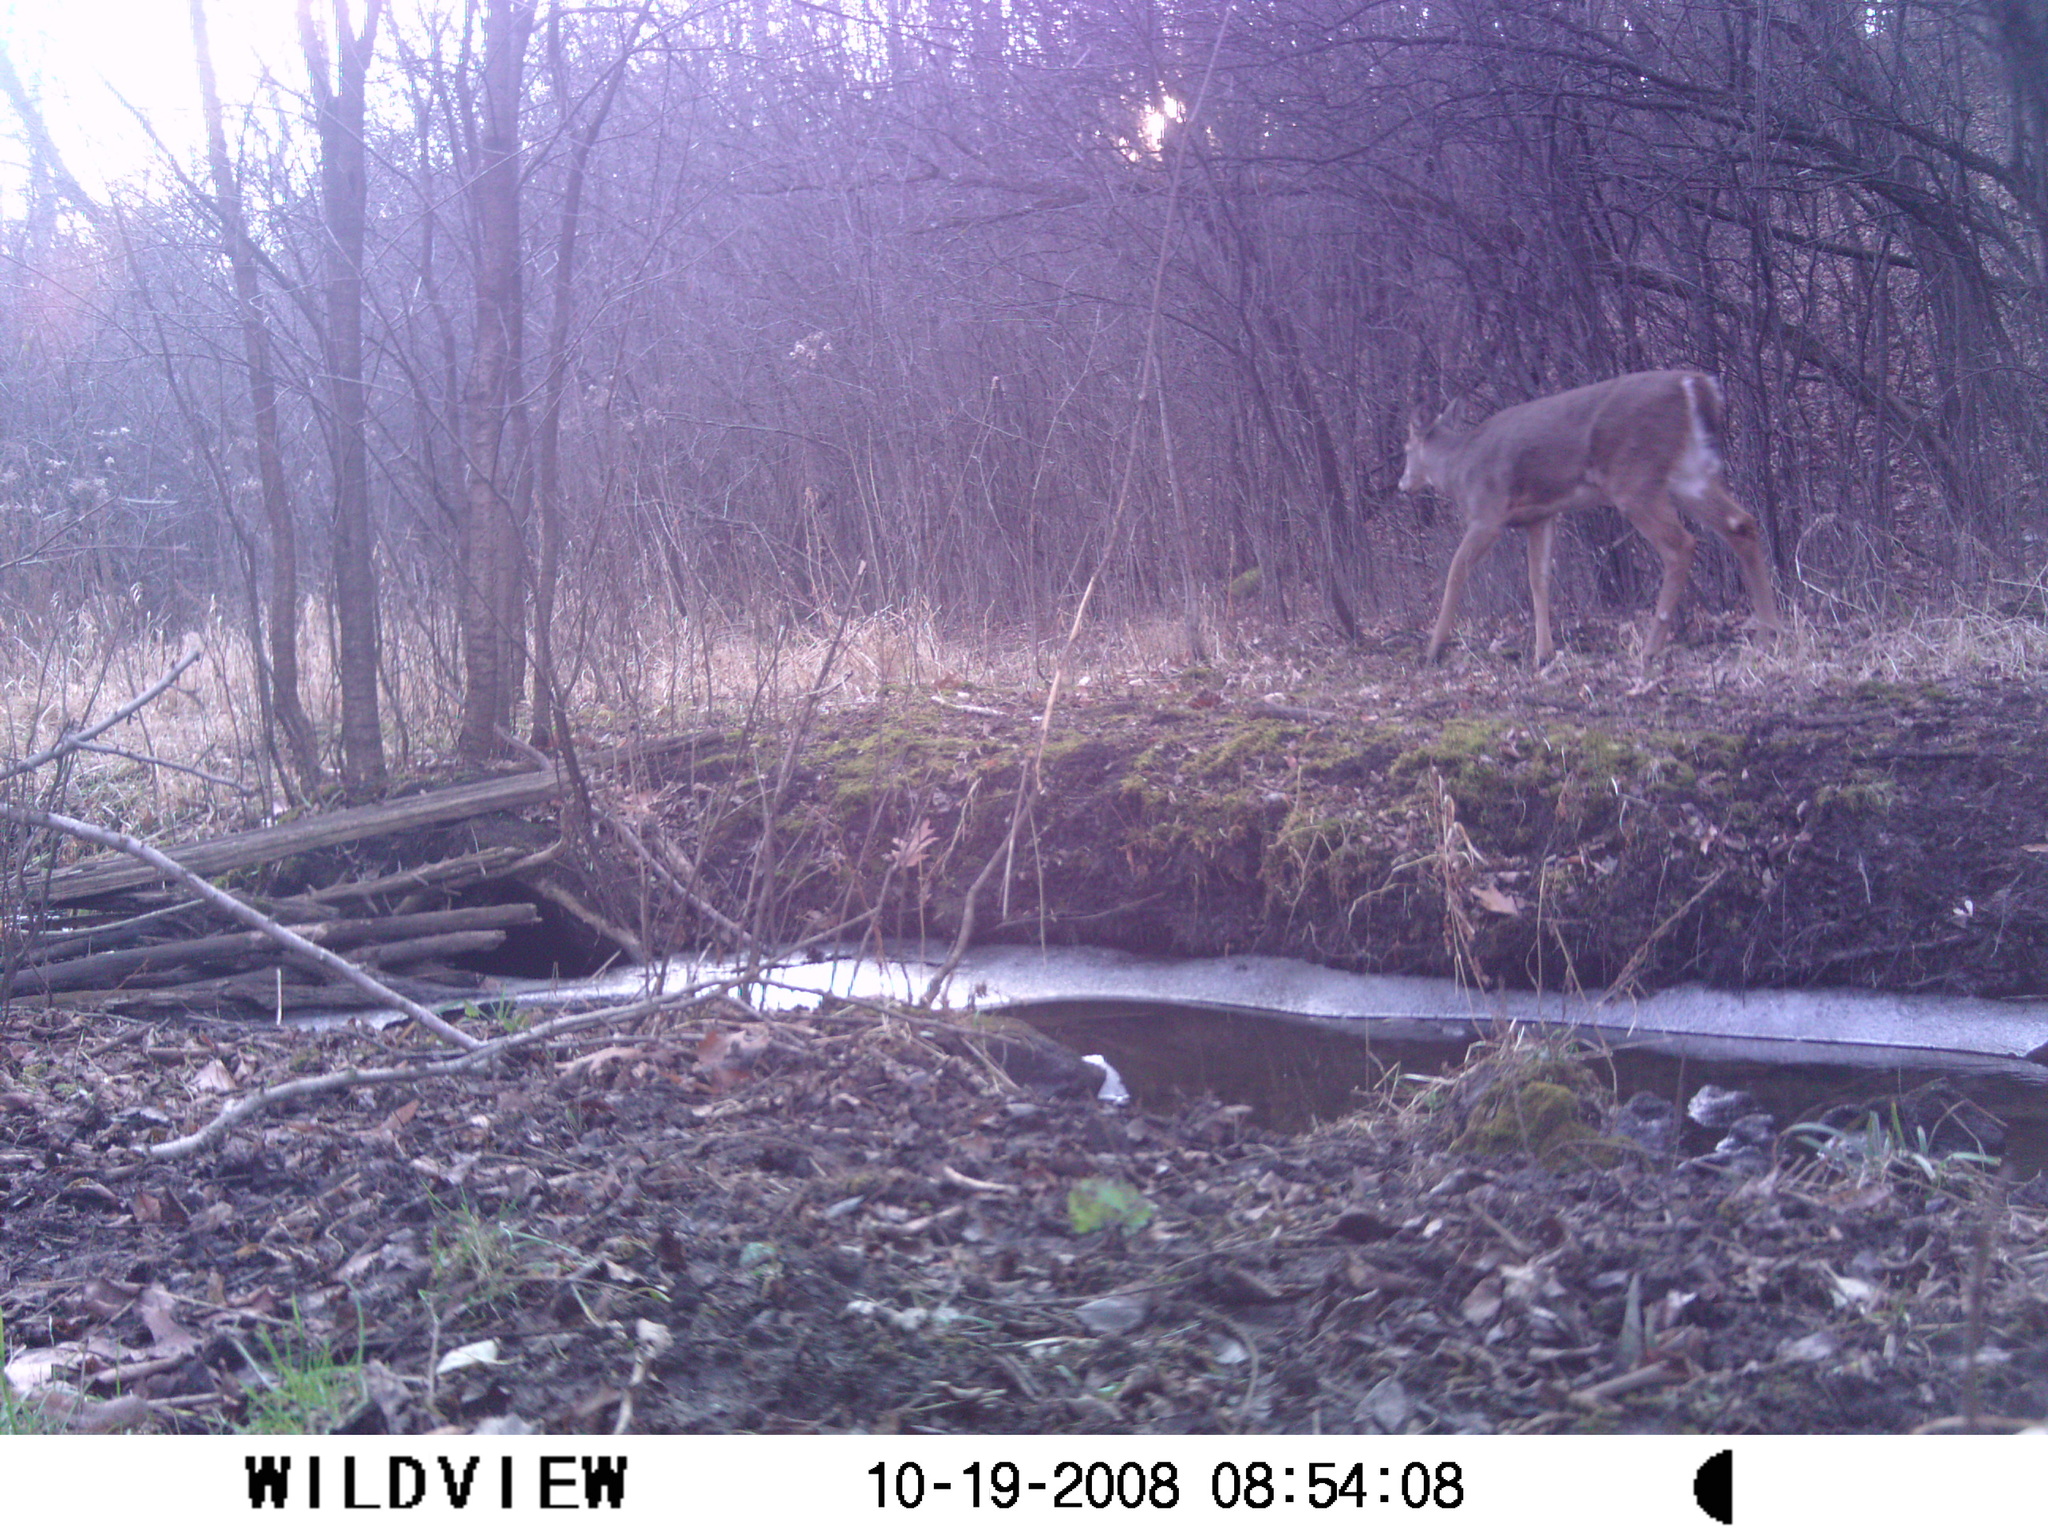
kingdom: Animalia
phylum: Chordata
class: Mammalia
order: Artiodactyla
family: Cervidae
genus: Odocoileus
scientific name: Odocoileus virginianus
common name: White-tailed deer
